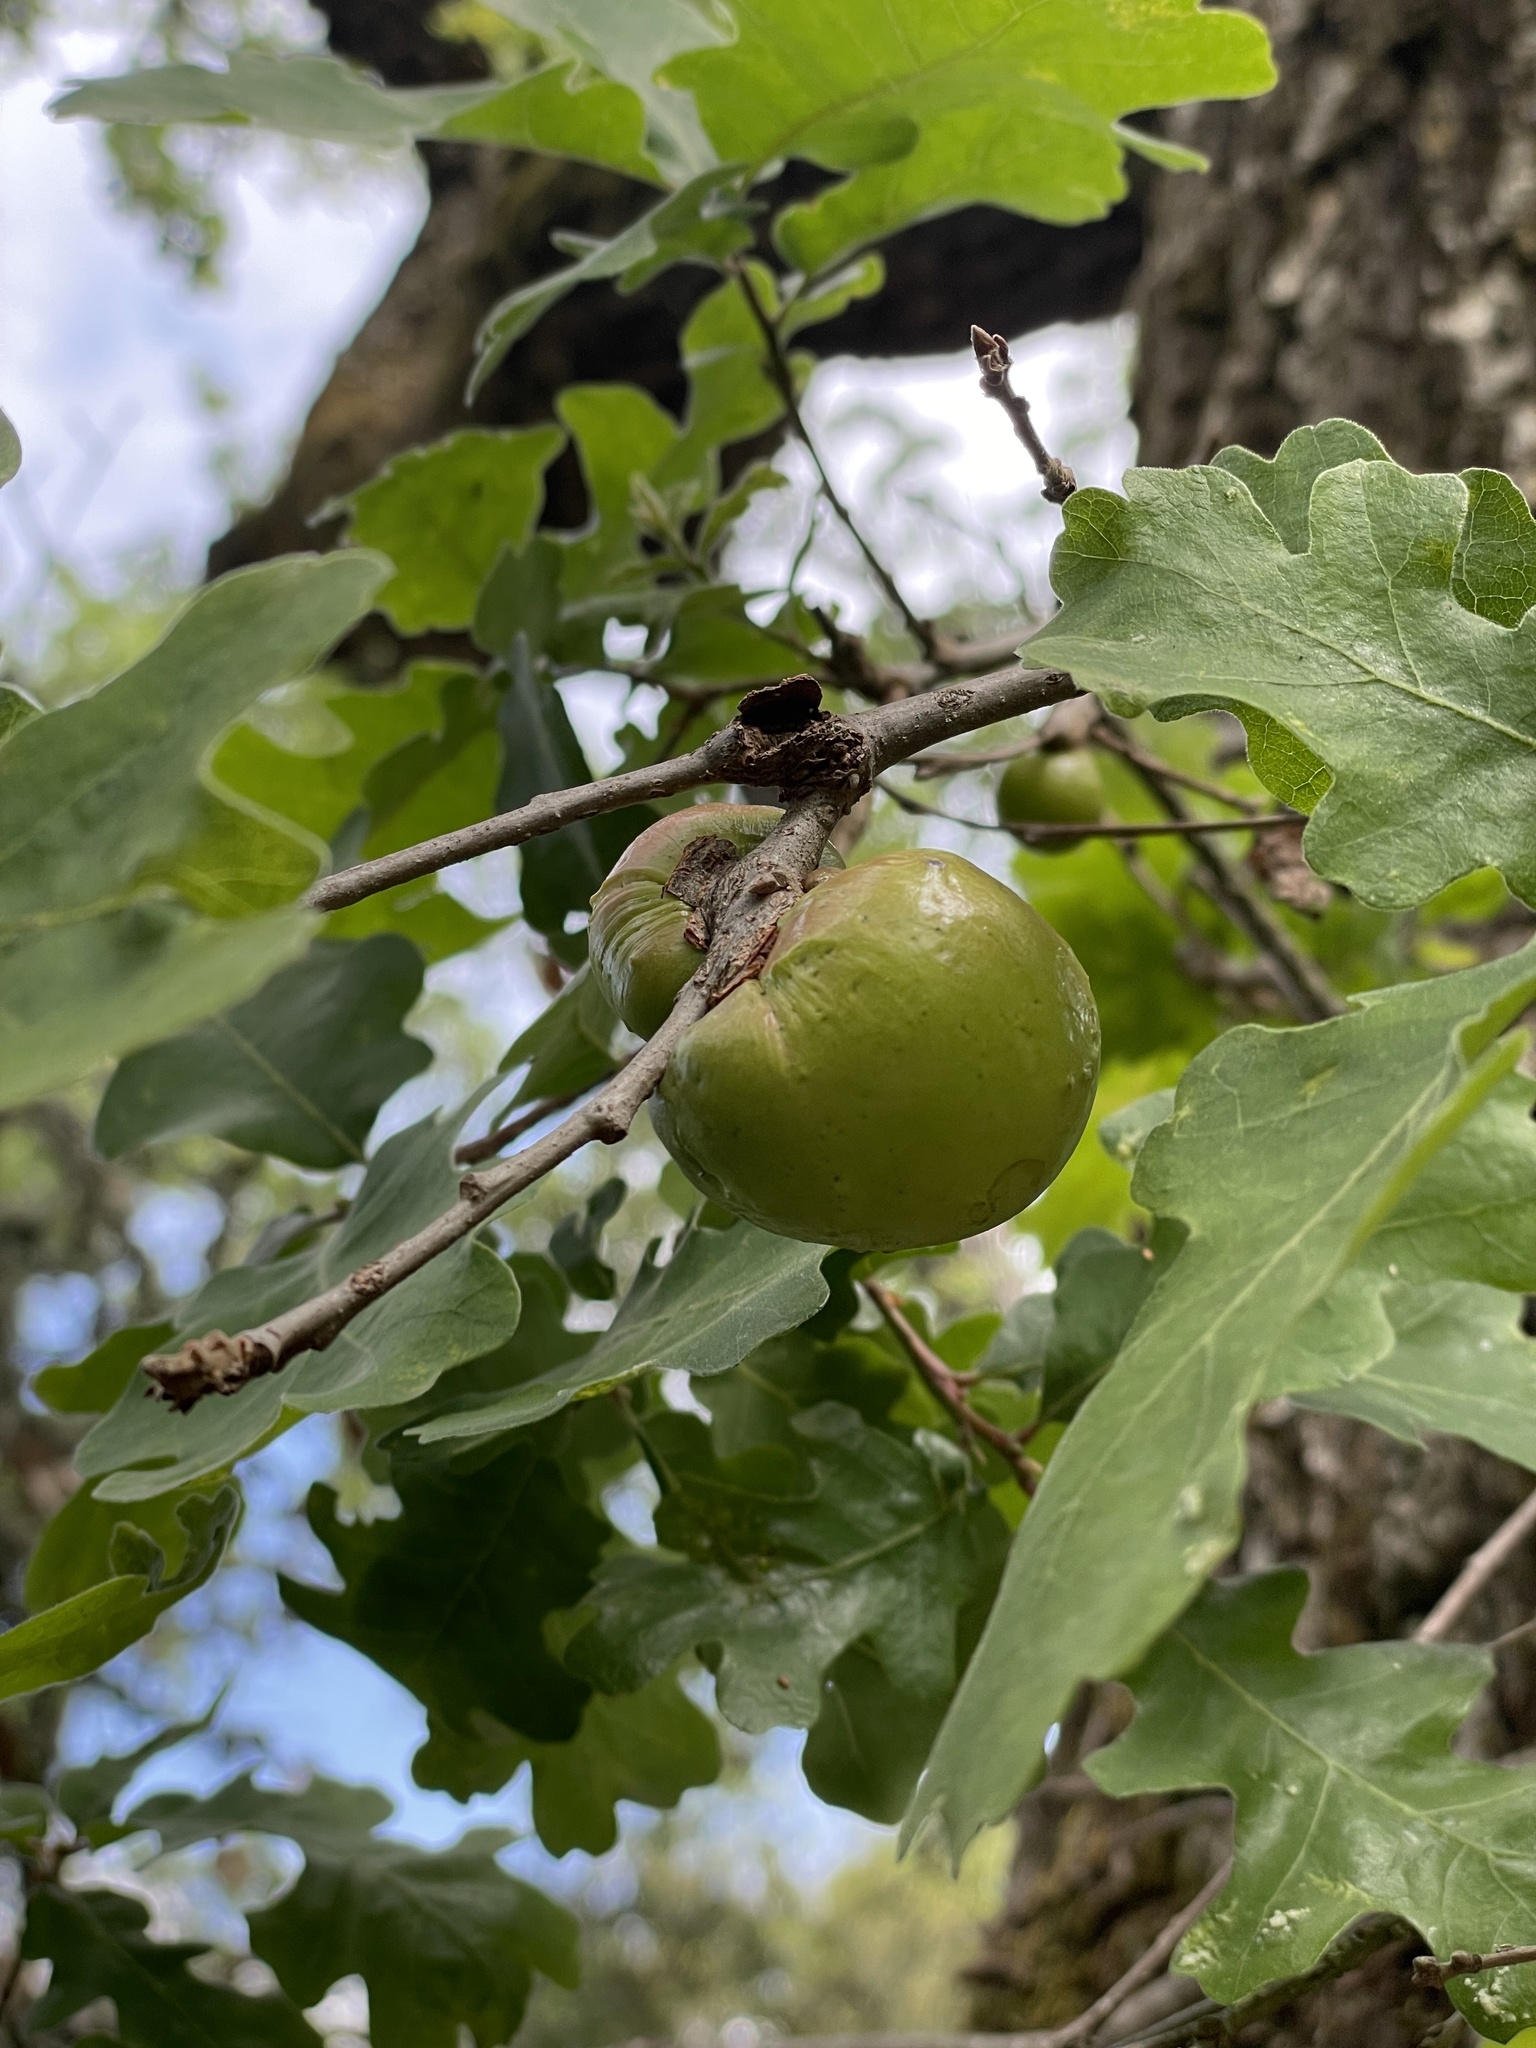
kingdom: Animalia
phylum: Arthropoda
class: Insecta
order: Hymenoptera
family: Cynipidae
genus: Andricus
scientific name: Andricus quercuscalifornicus
